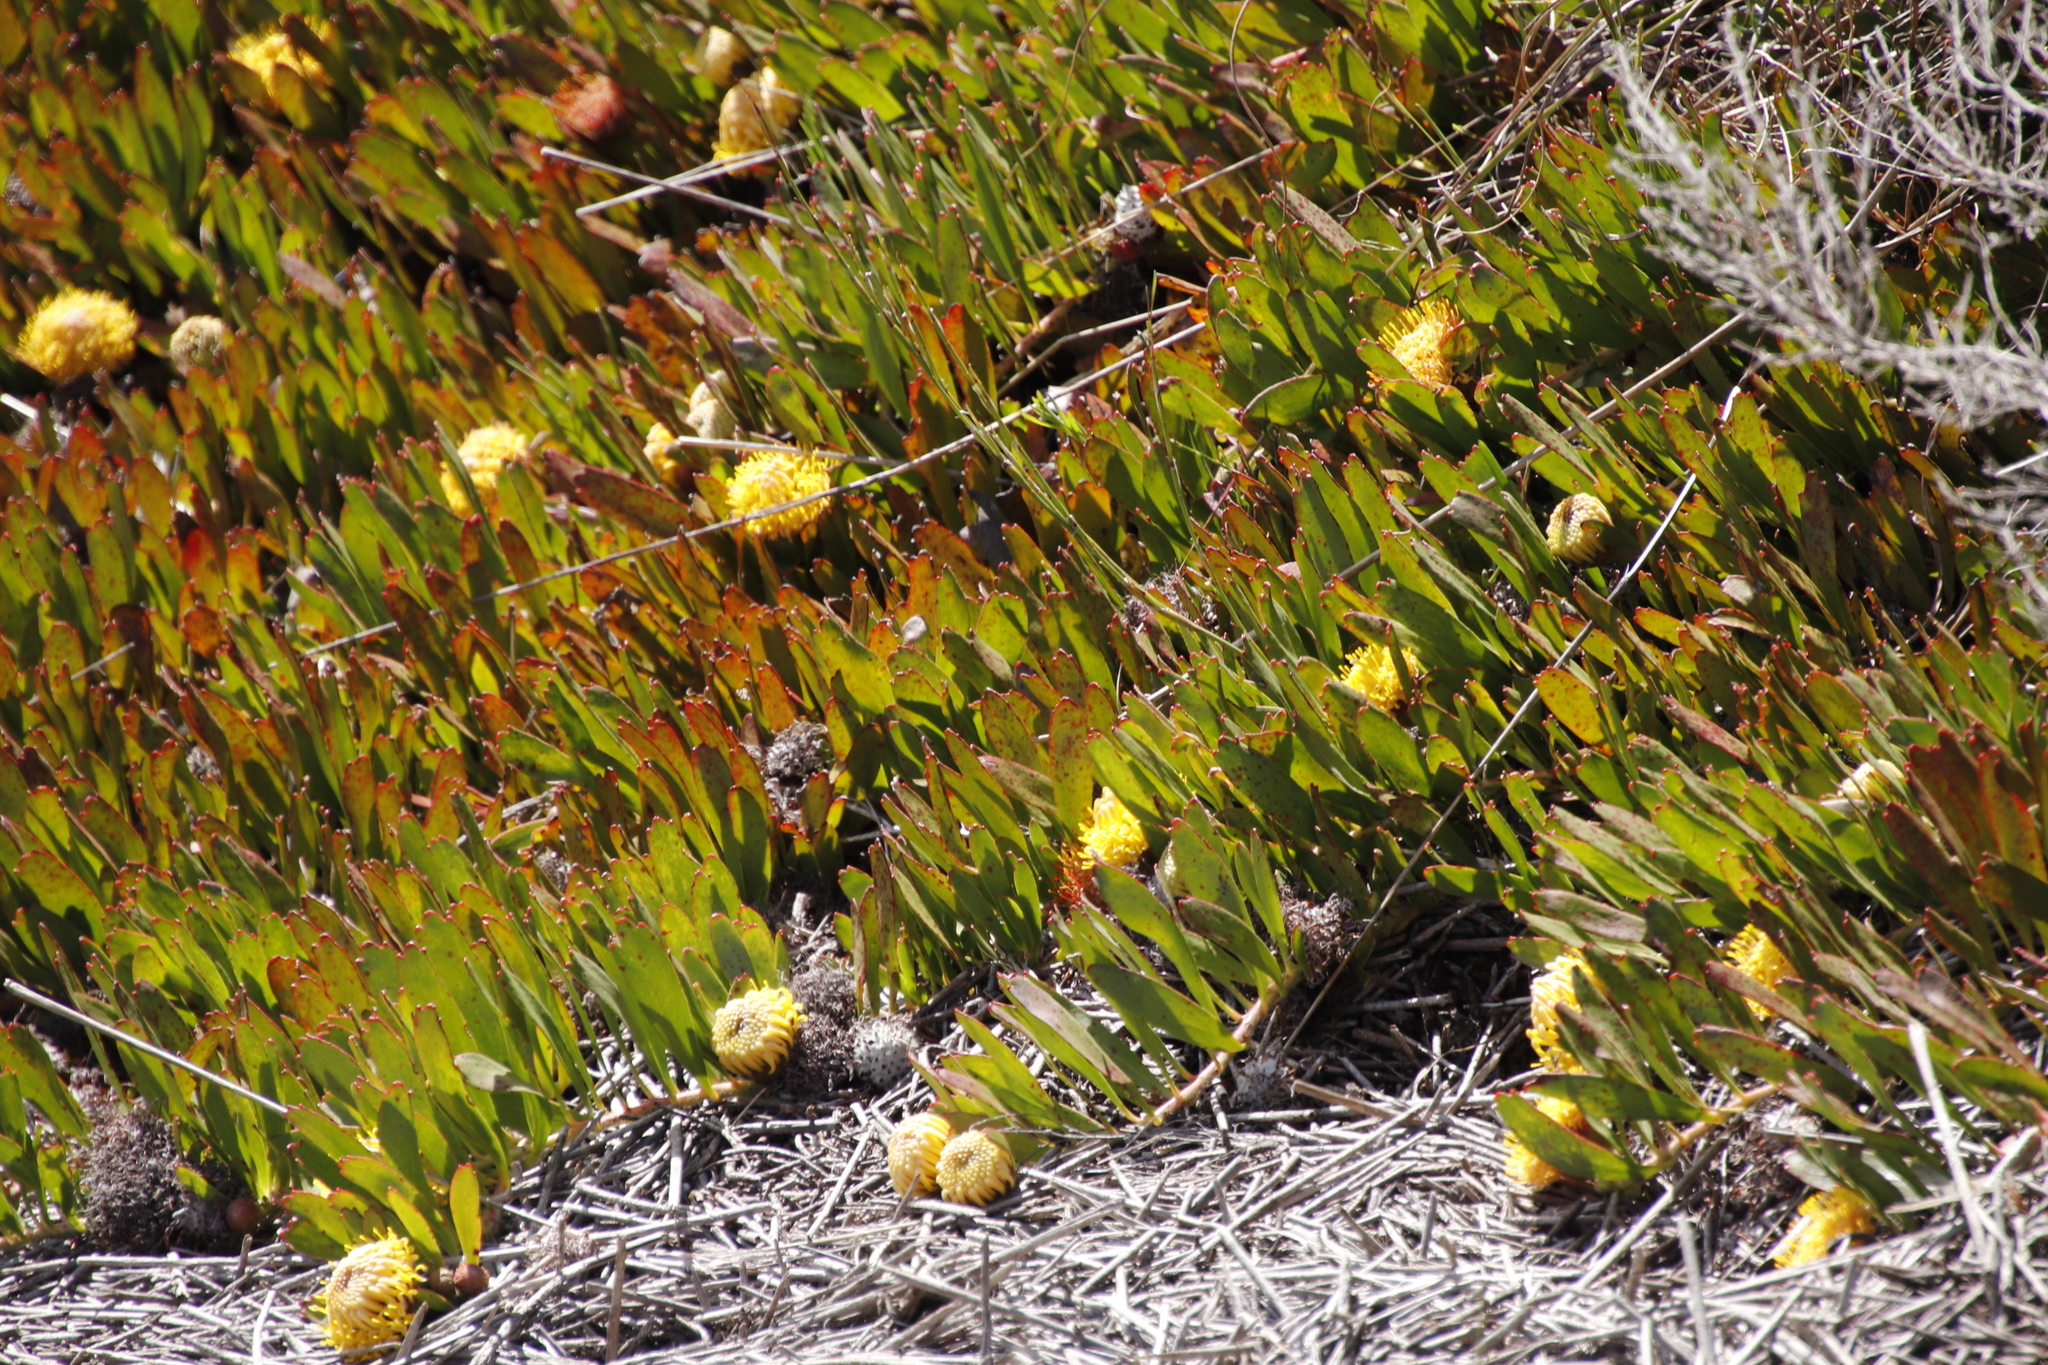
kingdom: Plantae
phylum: Tracheophyta
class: Magnoliopsida
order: Proteales
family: Proteaceae
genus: Leucospermum
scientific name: Leucospermum hypophyllocarpodendron
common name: Snakestem pincushion
